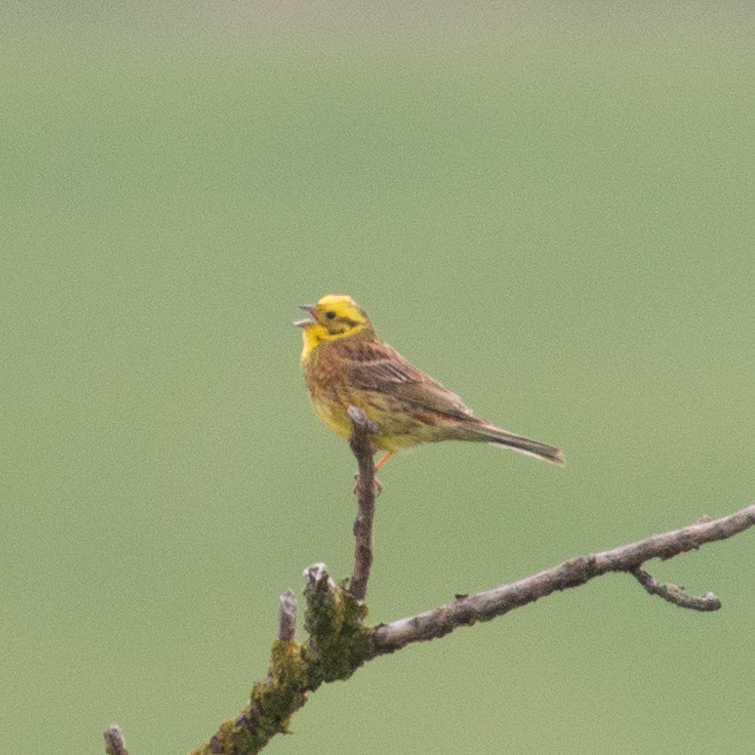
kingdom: Animalia
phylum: Chordata
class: Aves
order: Passeriformes
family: Emberizidae
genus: Emberiza
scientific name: Emberiza citrinella
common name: Yellowhammer
